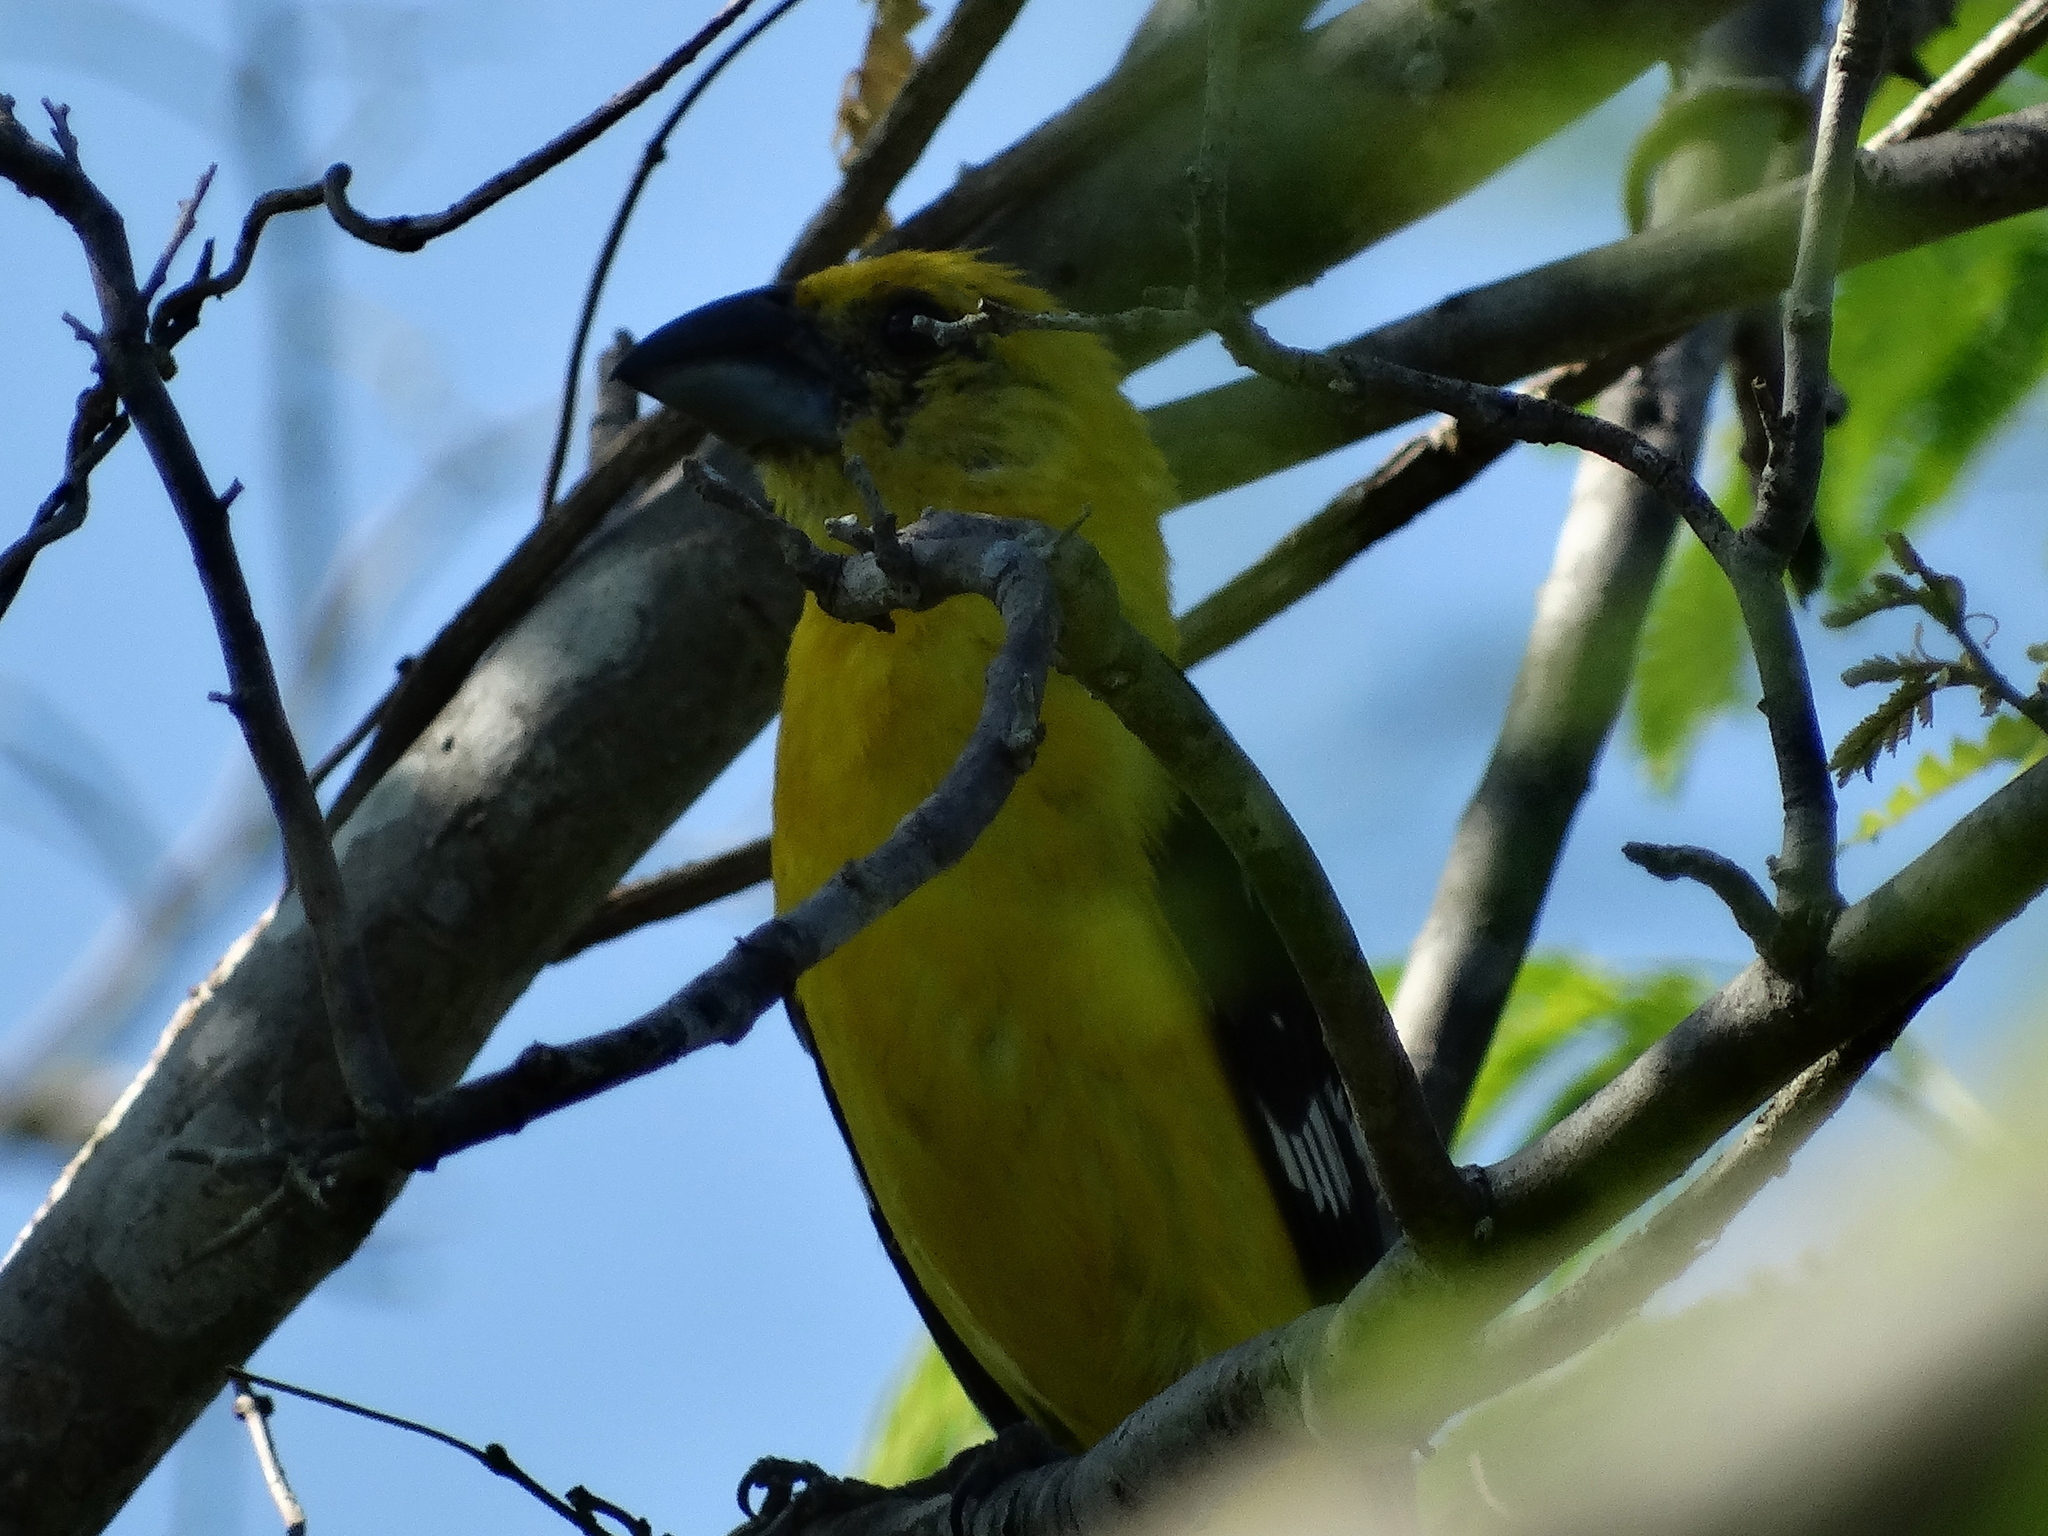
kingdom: Animalia
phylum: Chordata
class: Aves
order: Passeriformes
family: Cardinalidae
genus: Pheucticus
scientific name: Pheucticus chrysopeplus
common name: Yellow grosbeak
